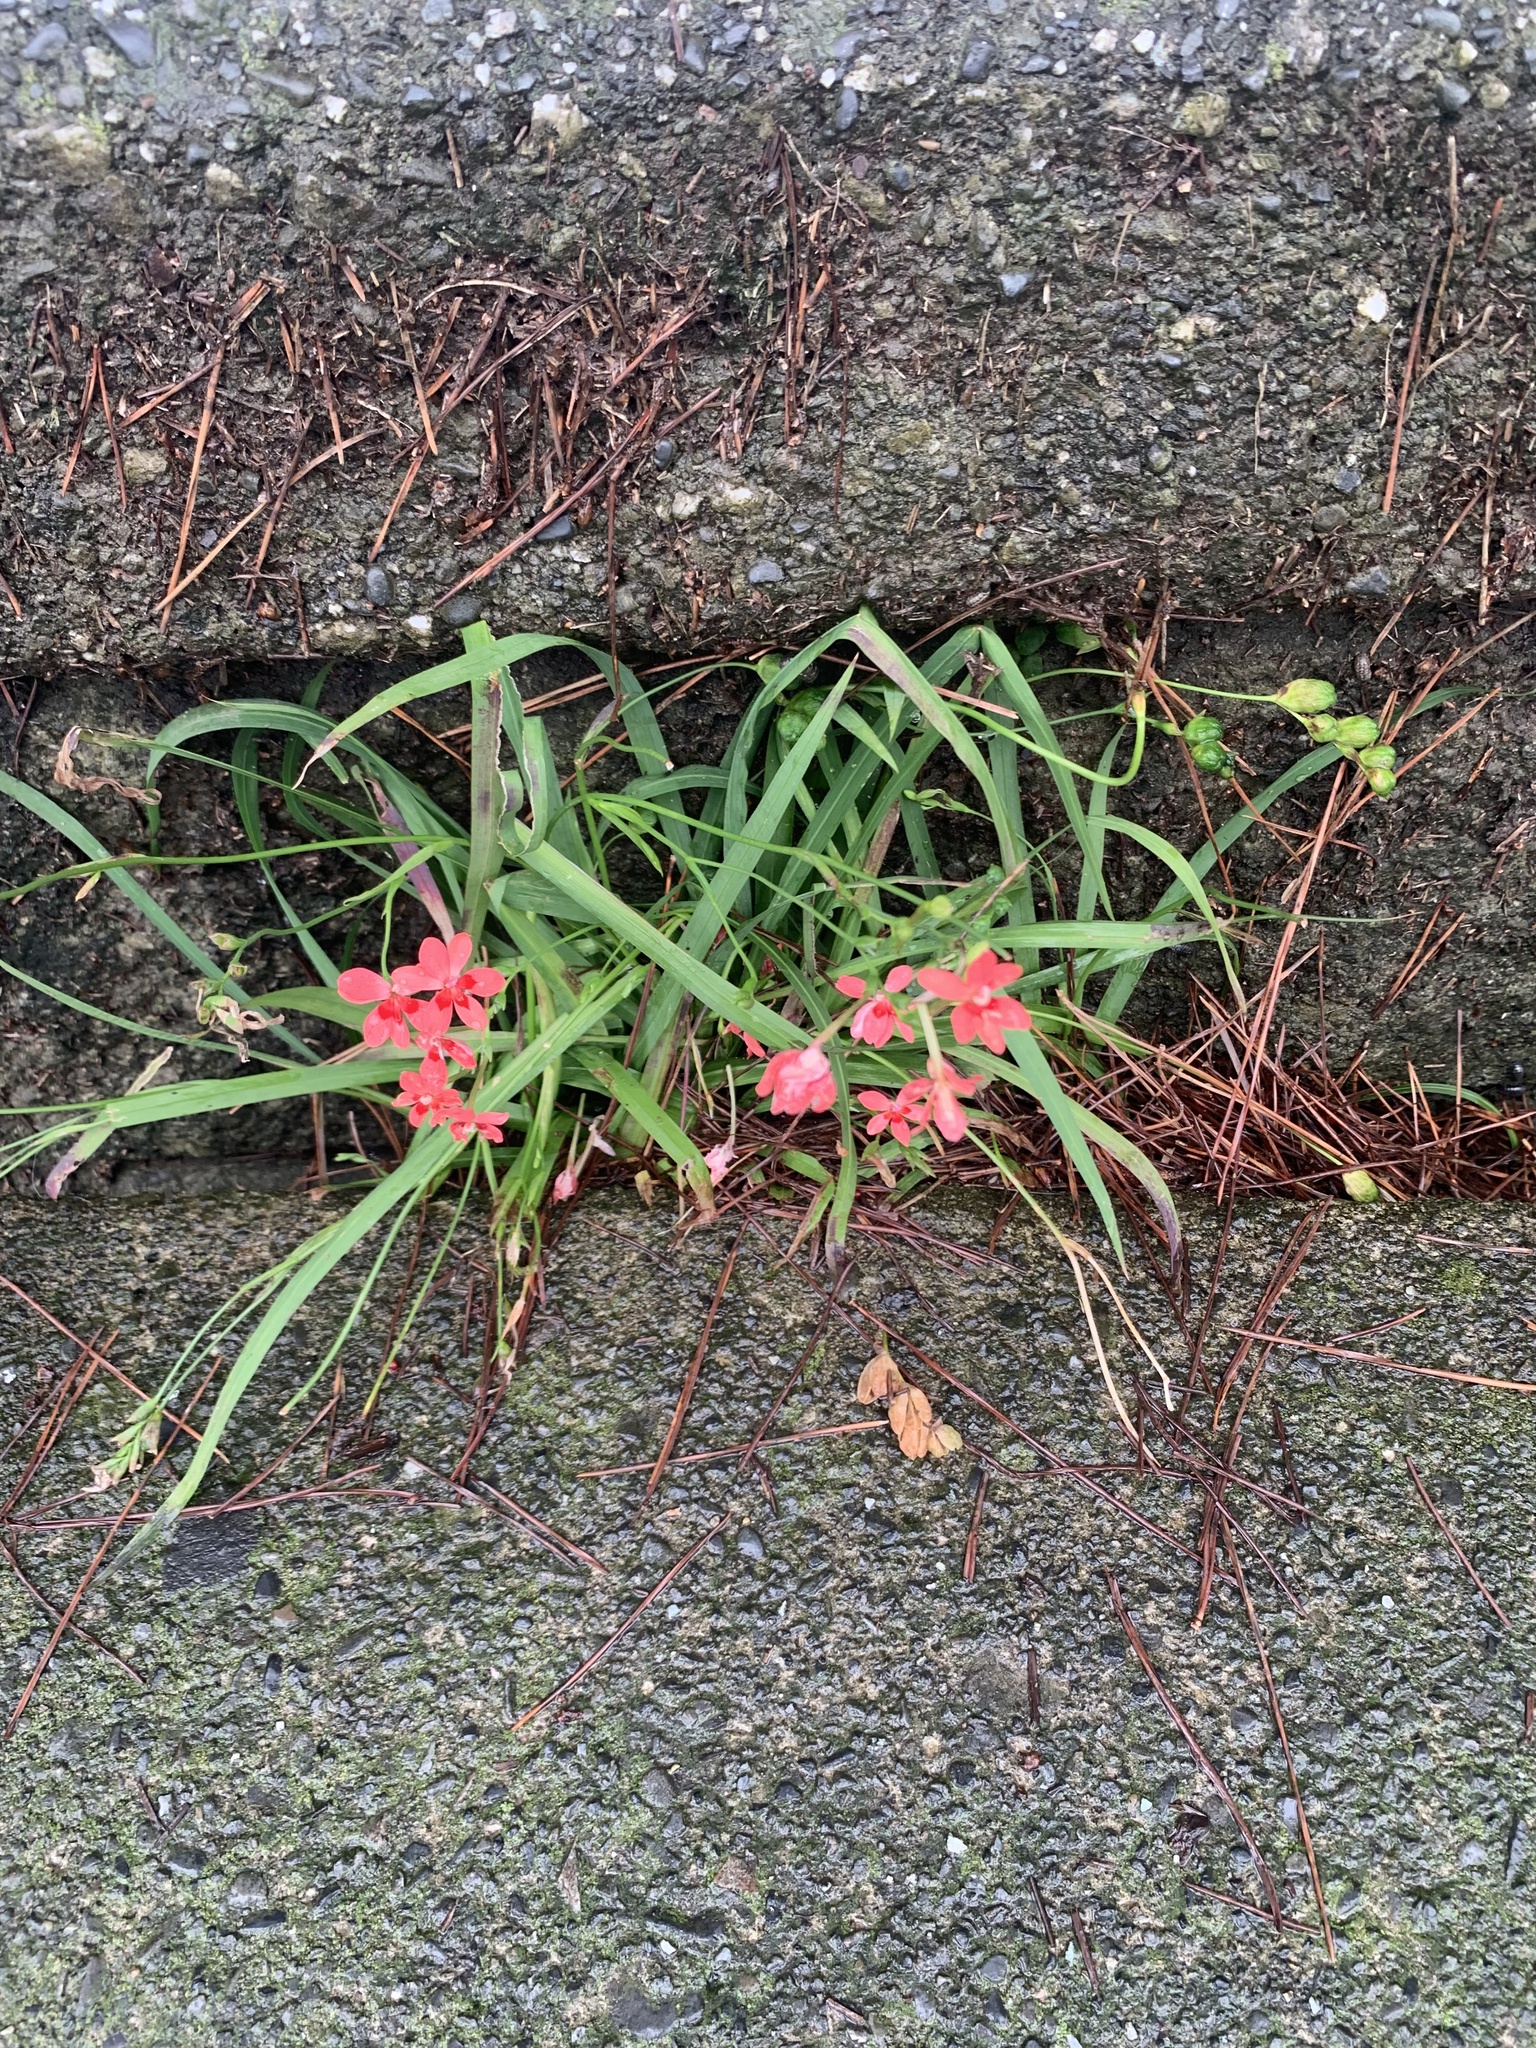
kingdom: Plantae
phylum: Tracheophyta
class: Liliopsida
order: Asparagales
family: Iridaceae
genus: Freesia
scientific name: Freesia laxa
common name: False freesia
